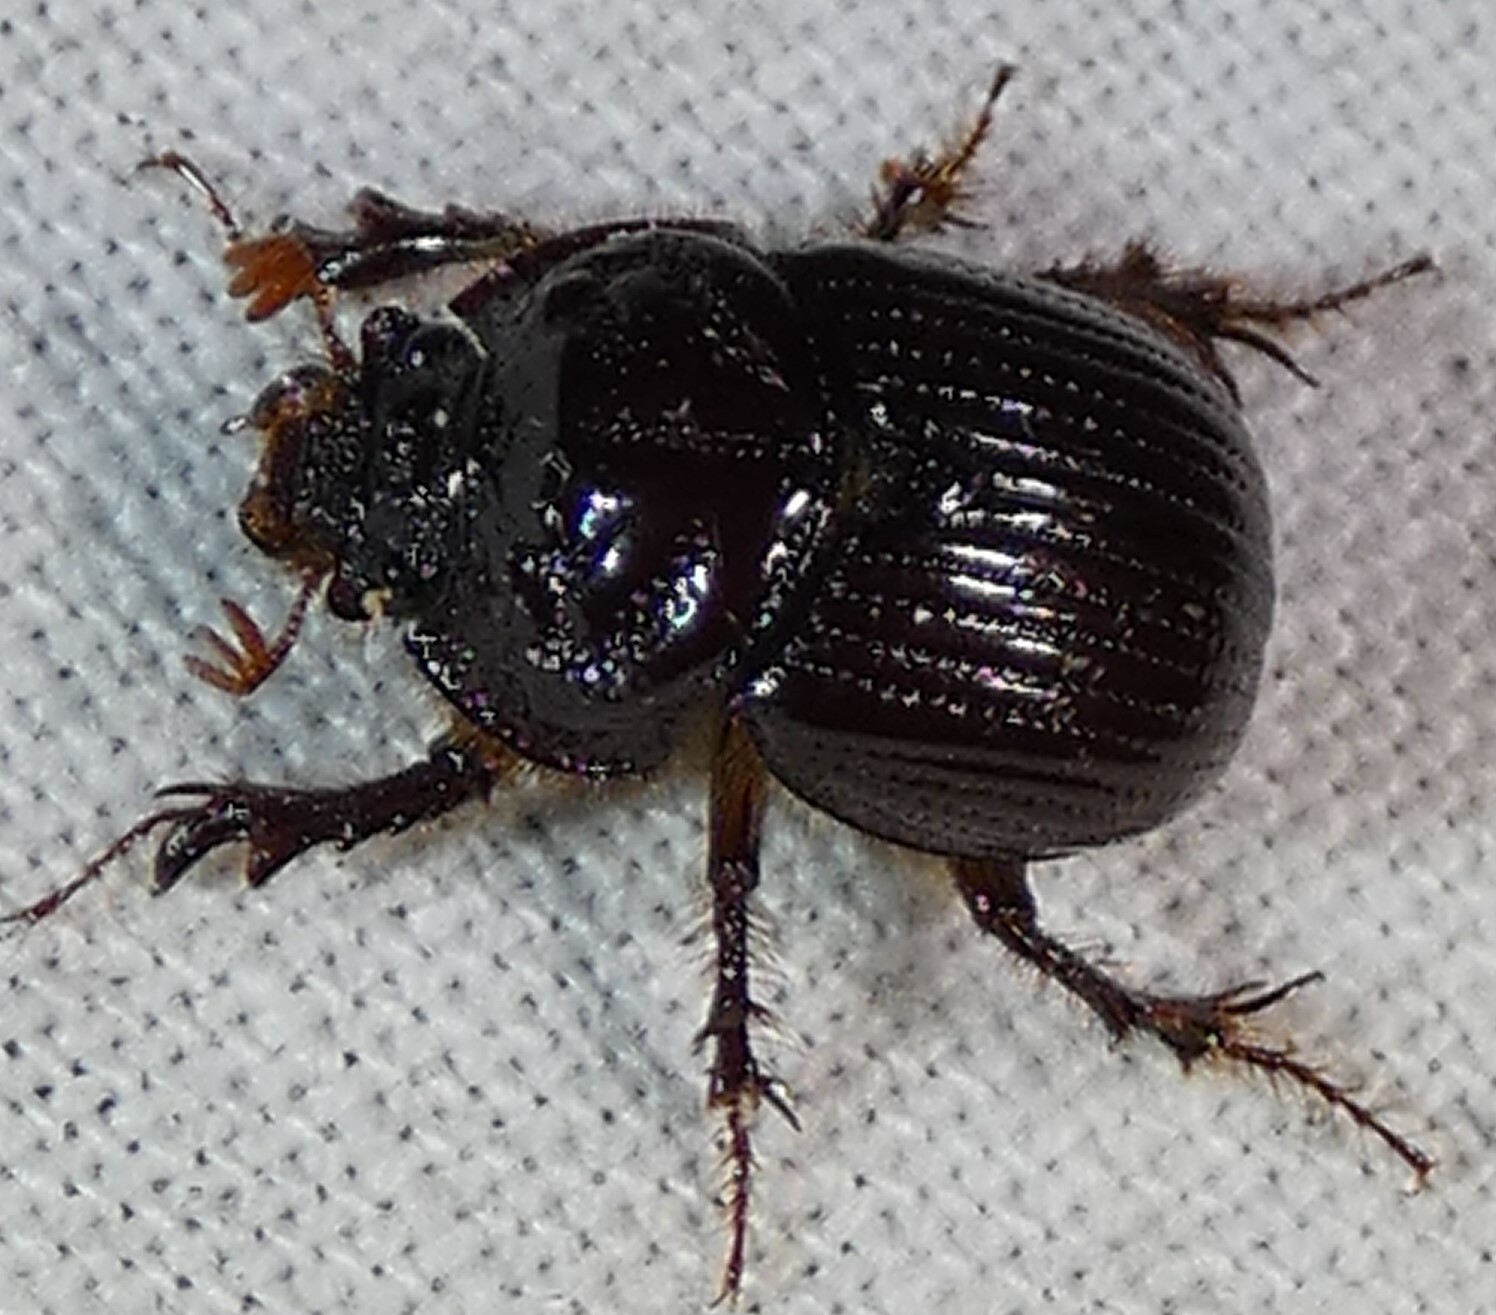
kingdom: Animalia
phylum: Arthropoda
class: Insecta
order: Coleoptera
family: Geotrupidae
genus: Eucanthus
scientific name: Eucanthus impressus
